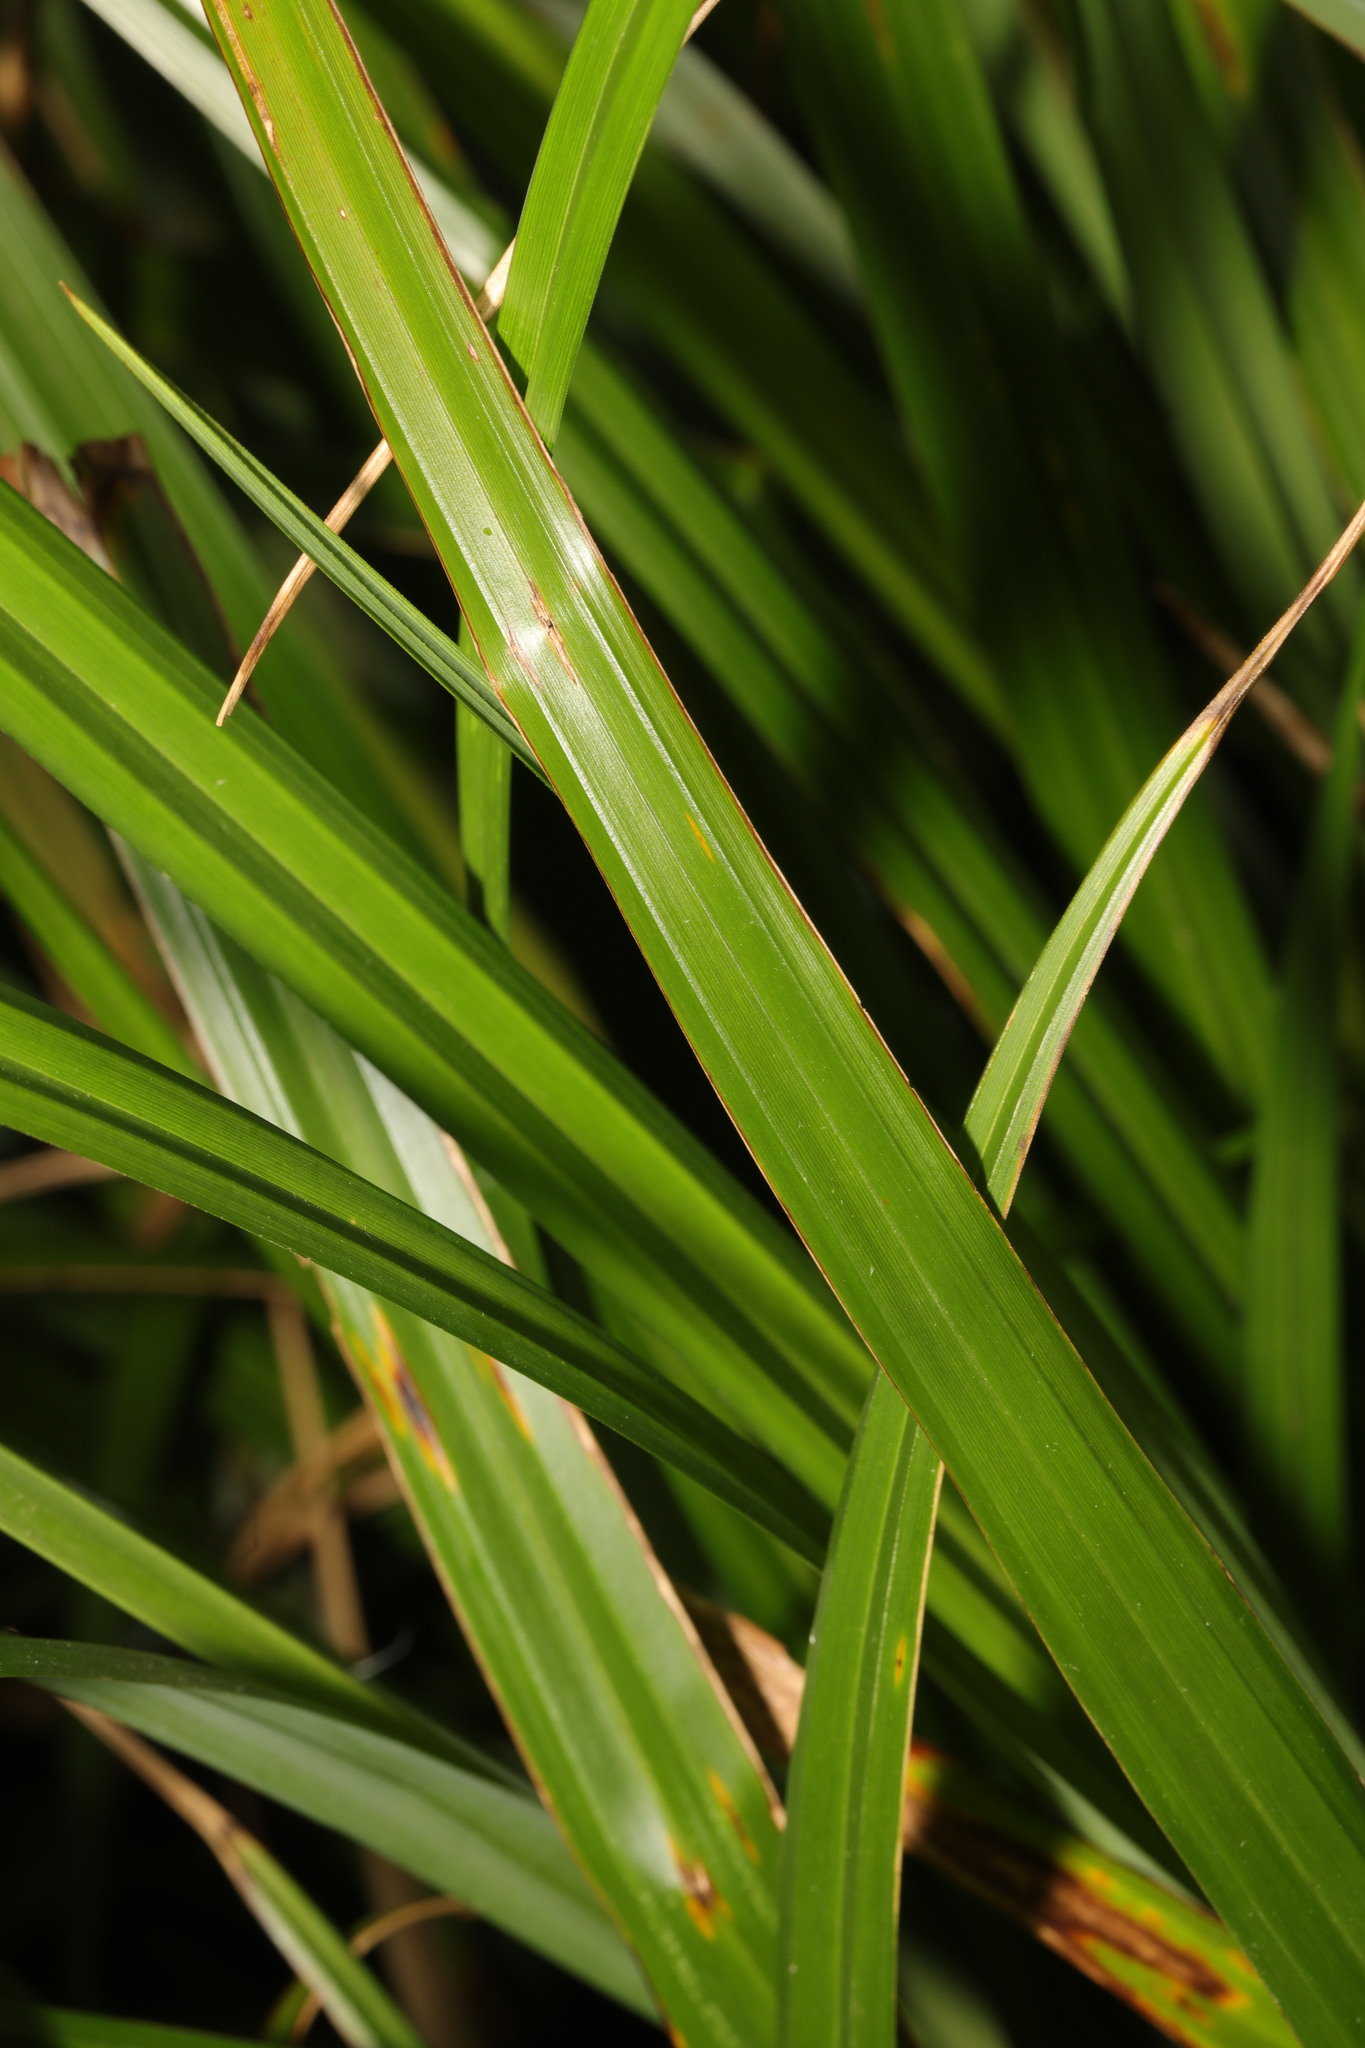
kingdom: Plantae
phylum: Tracheophyta
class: Liliopsida
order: Poales
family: Cyperaceae
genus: Carex
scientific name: Carex pendula
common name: Pendulous sedge
